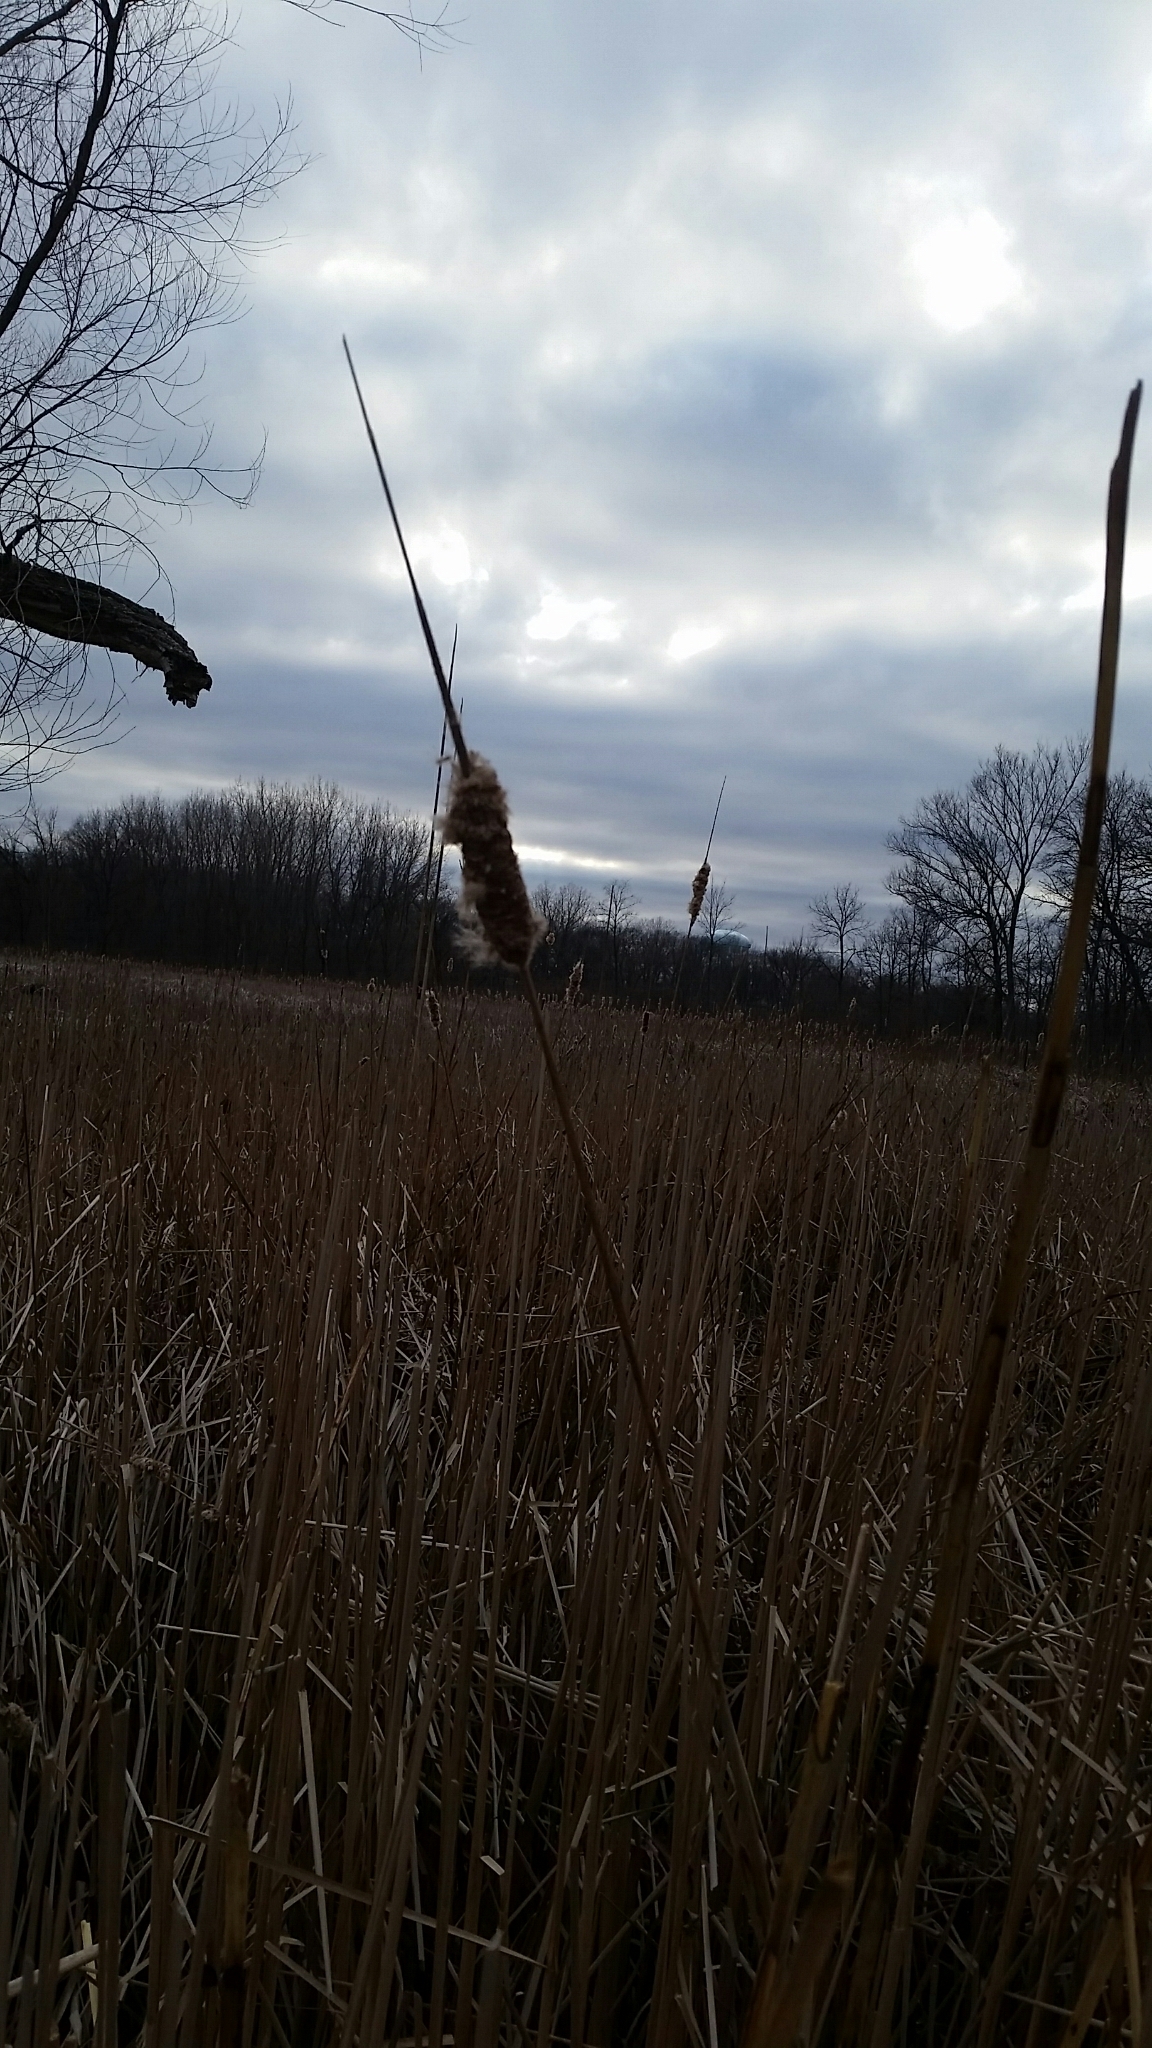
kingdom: Plantae
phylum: Tracheophyta
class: Liliopsida
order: Poales
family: Typhaceae
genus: Typha
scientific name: Typha latifolia
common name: Broadleaf cattail
